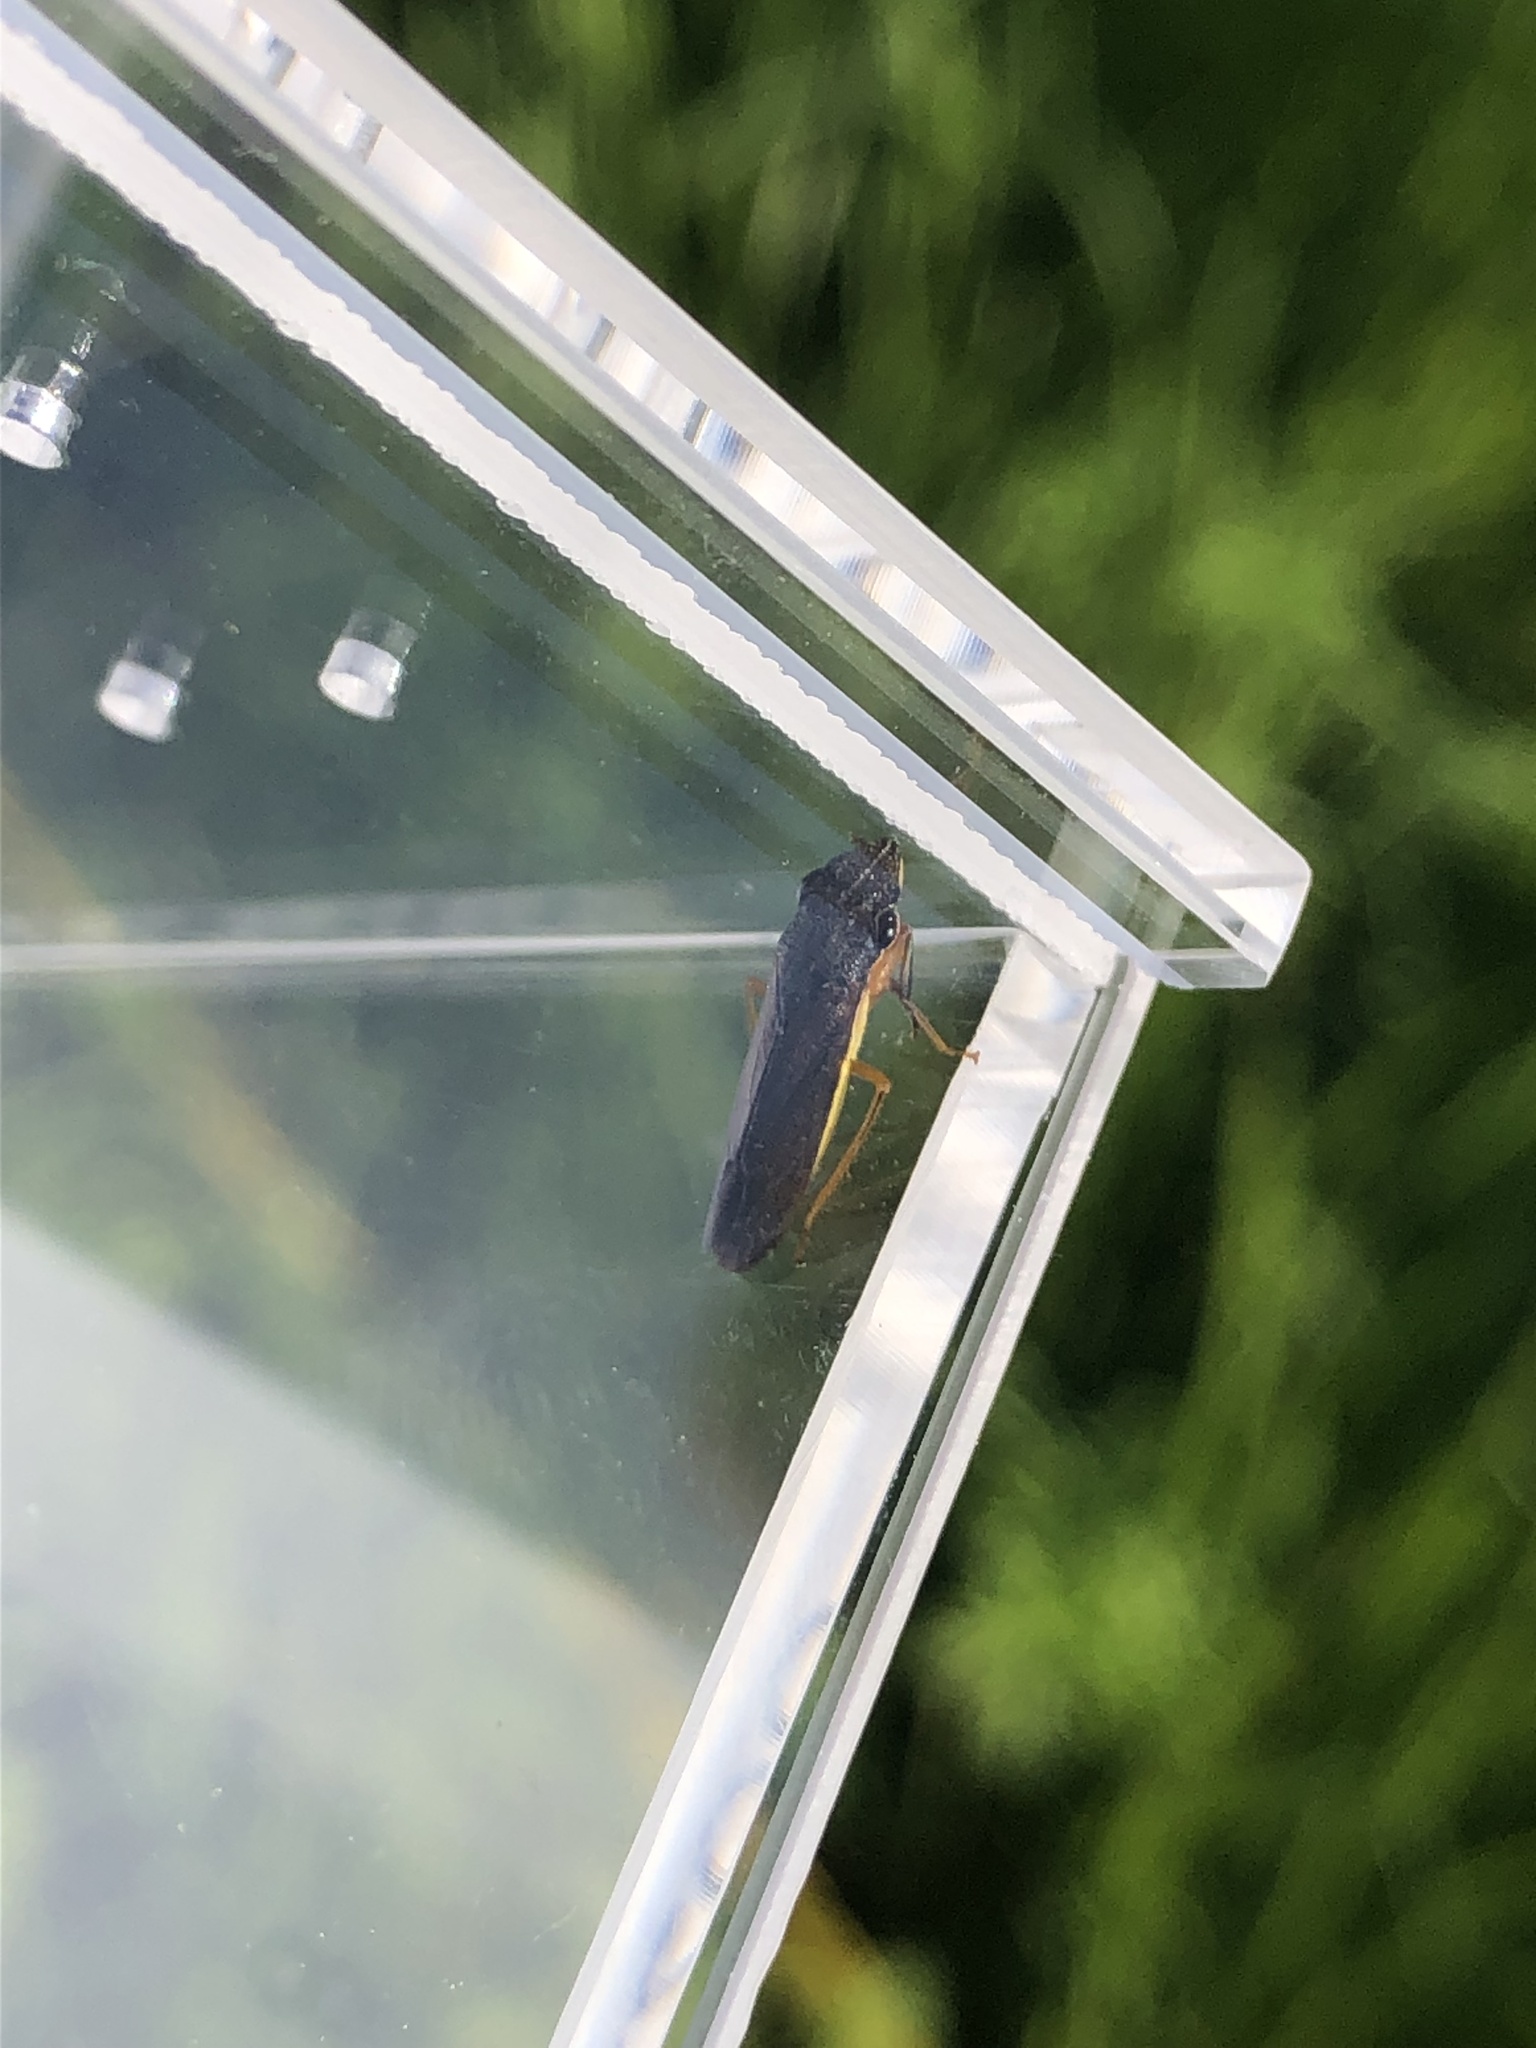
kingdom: Animalia
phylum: Arthropoda
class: Insecta
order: Hemiptera
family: Cicadellidae
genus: Homalodisca
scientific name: Homalodisca insolita
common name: Johnson grass sharpshooter
